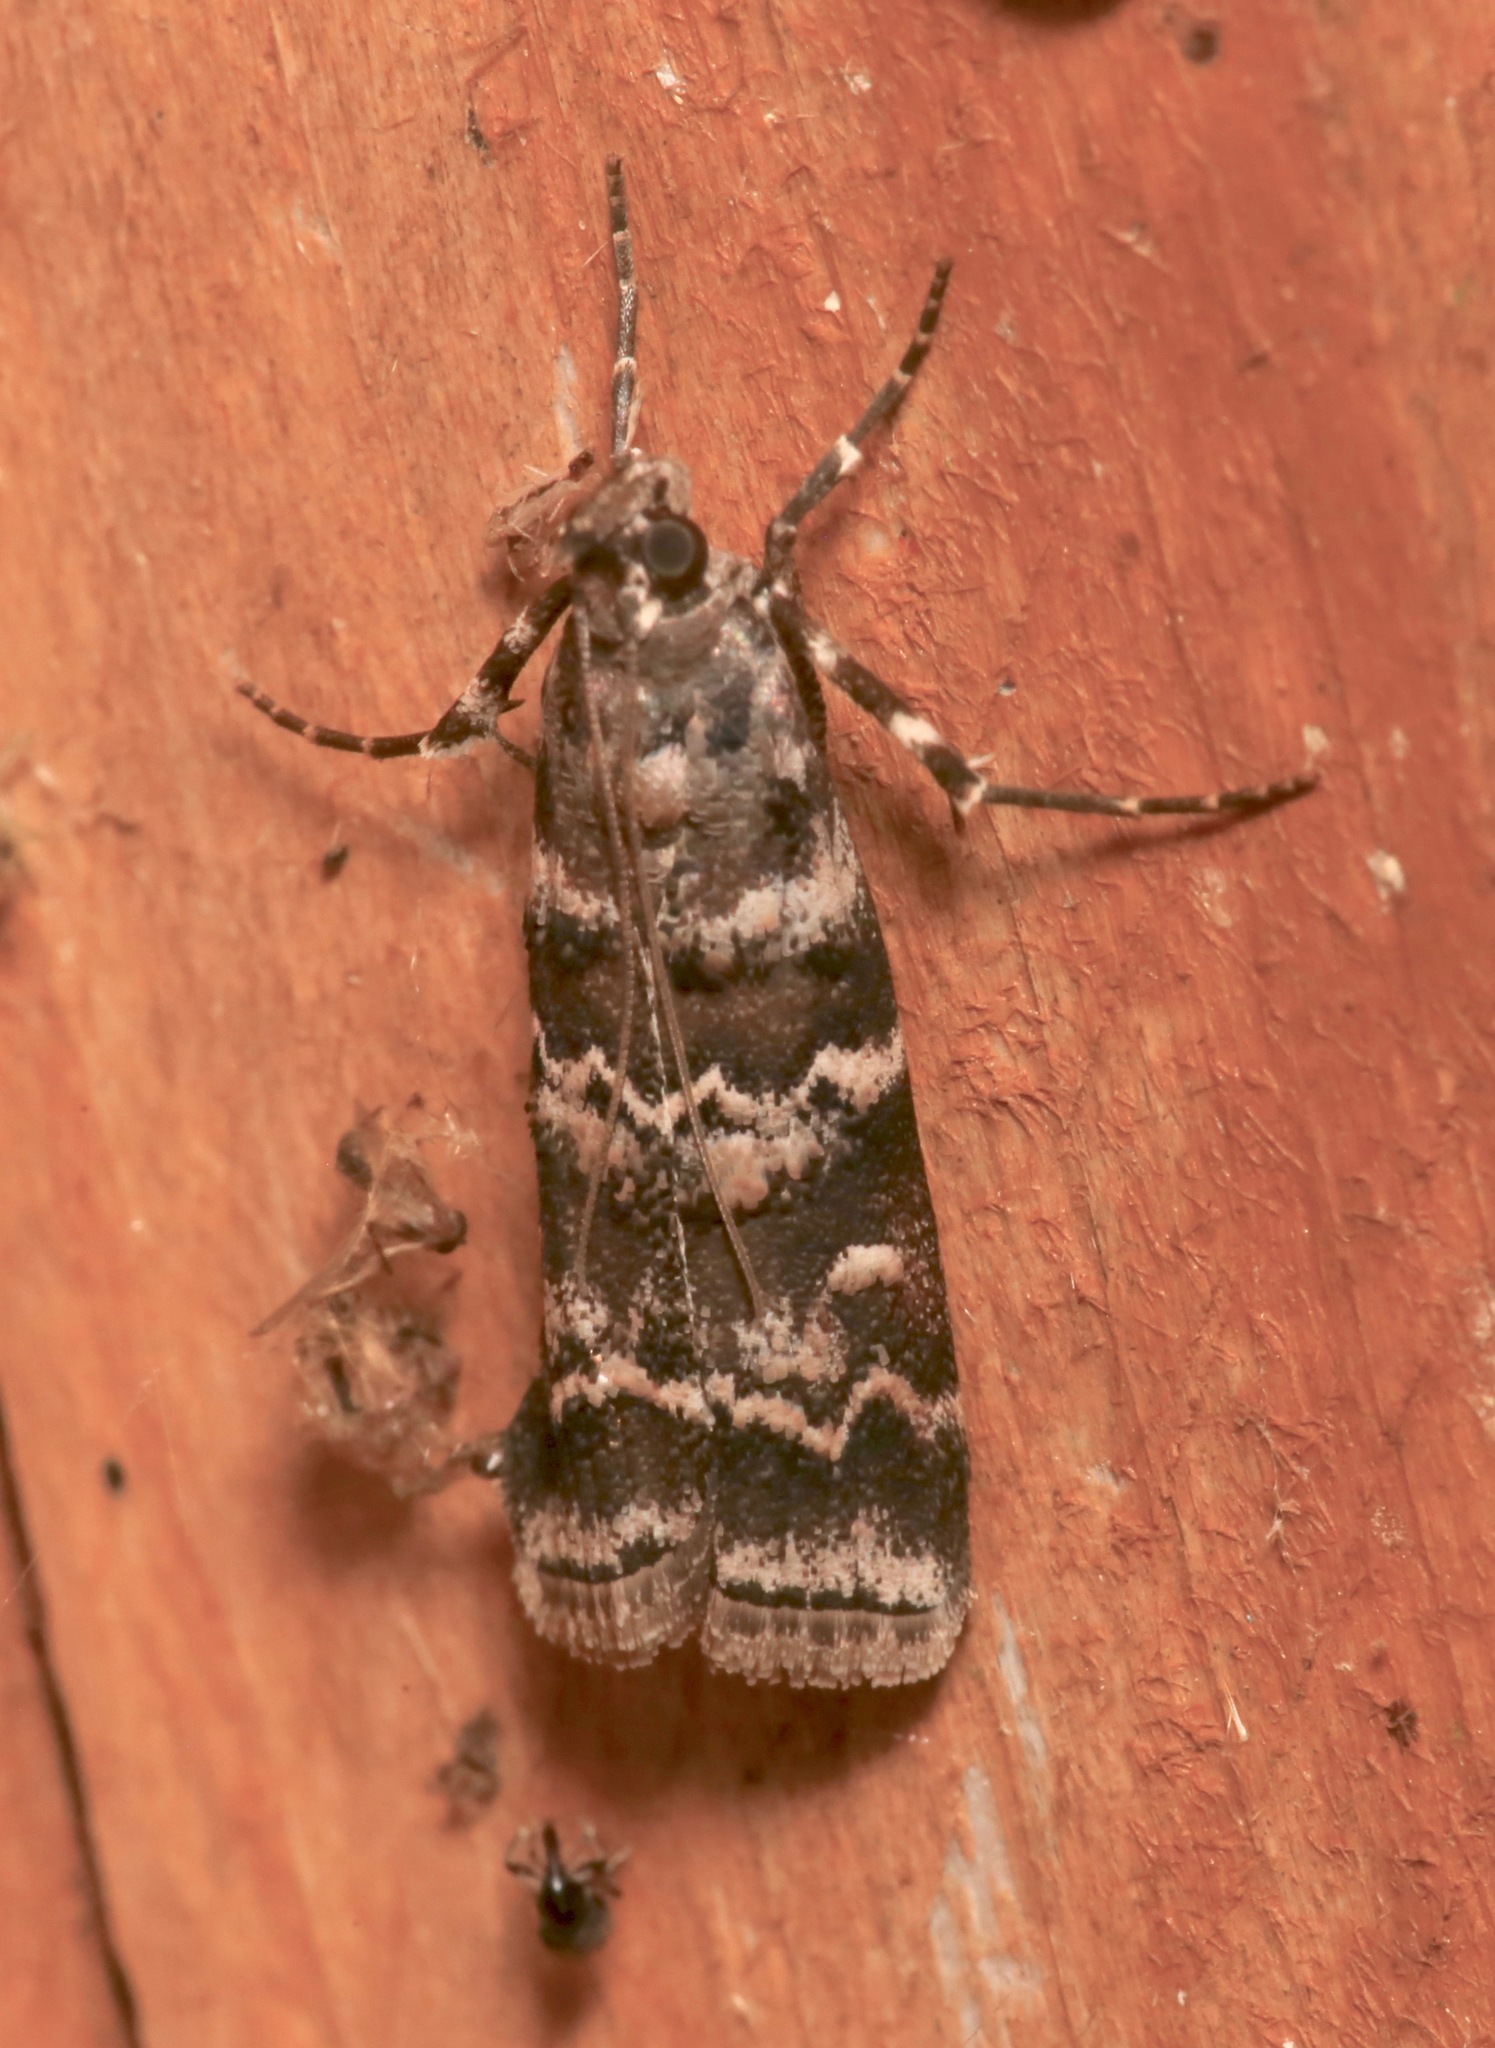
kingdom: Animalia
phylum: Arthropoda
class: Insecta
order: Lepidoptera
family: Pyralidae
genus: Dioryctria
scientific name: Dioryctria amatella
